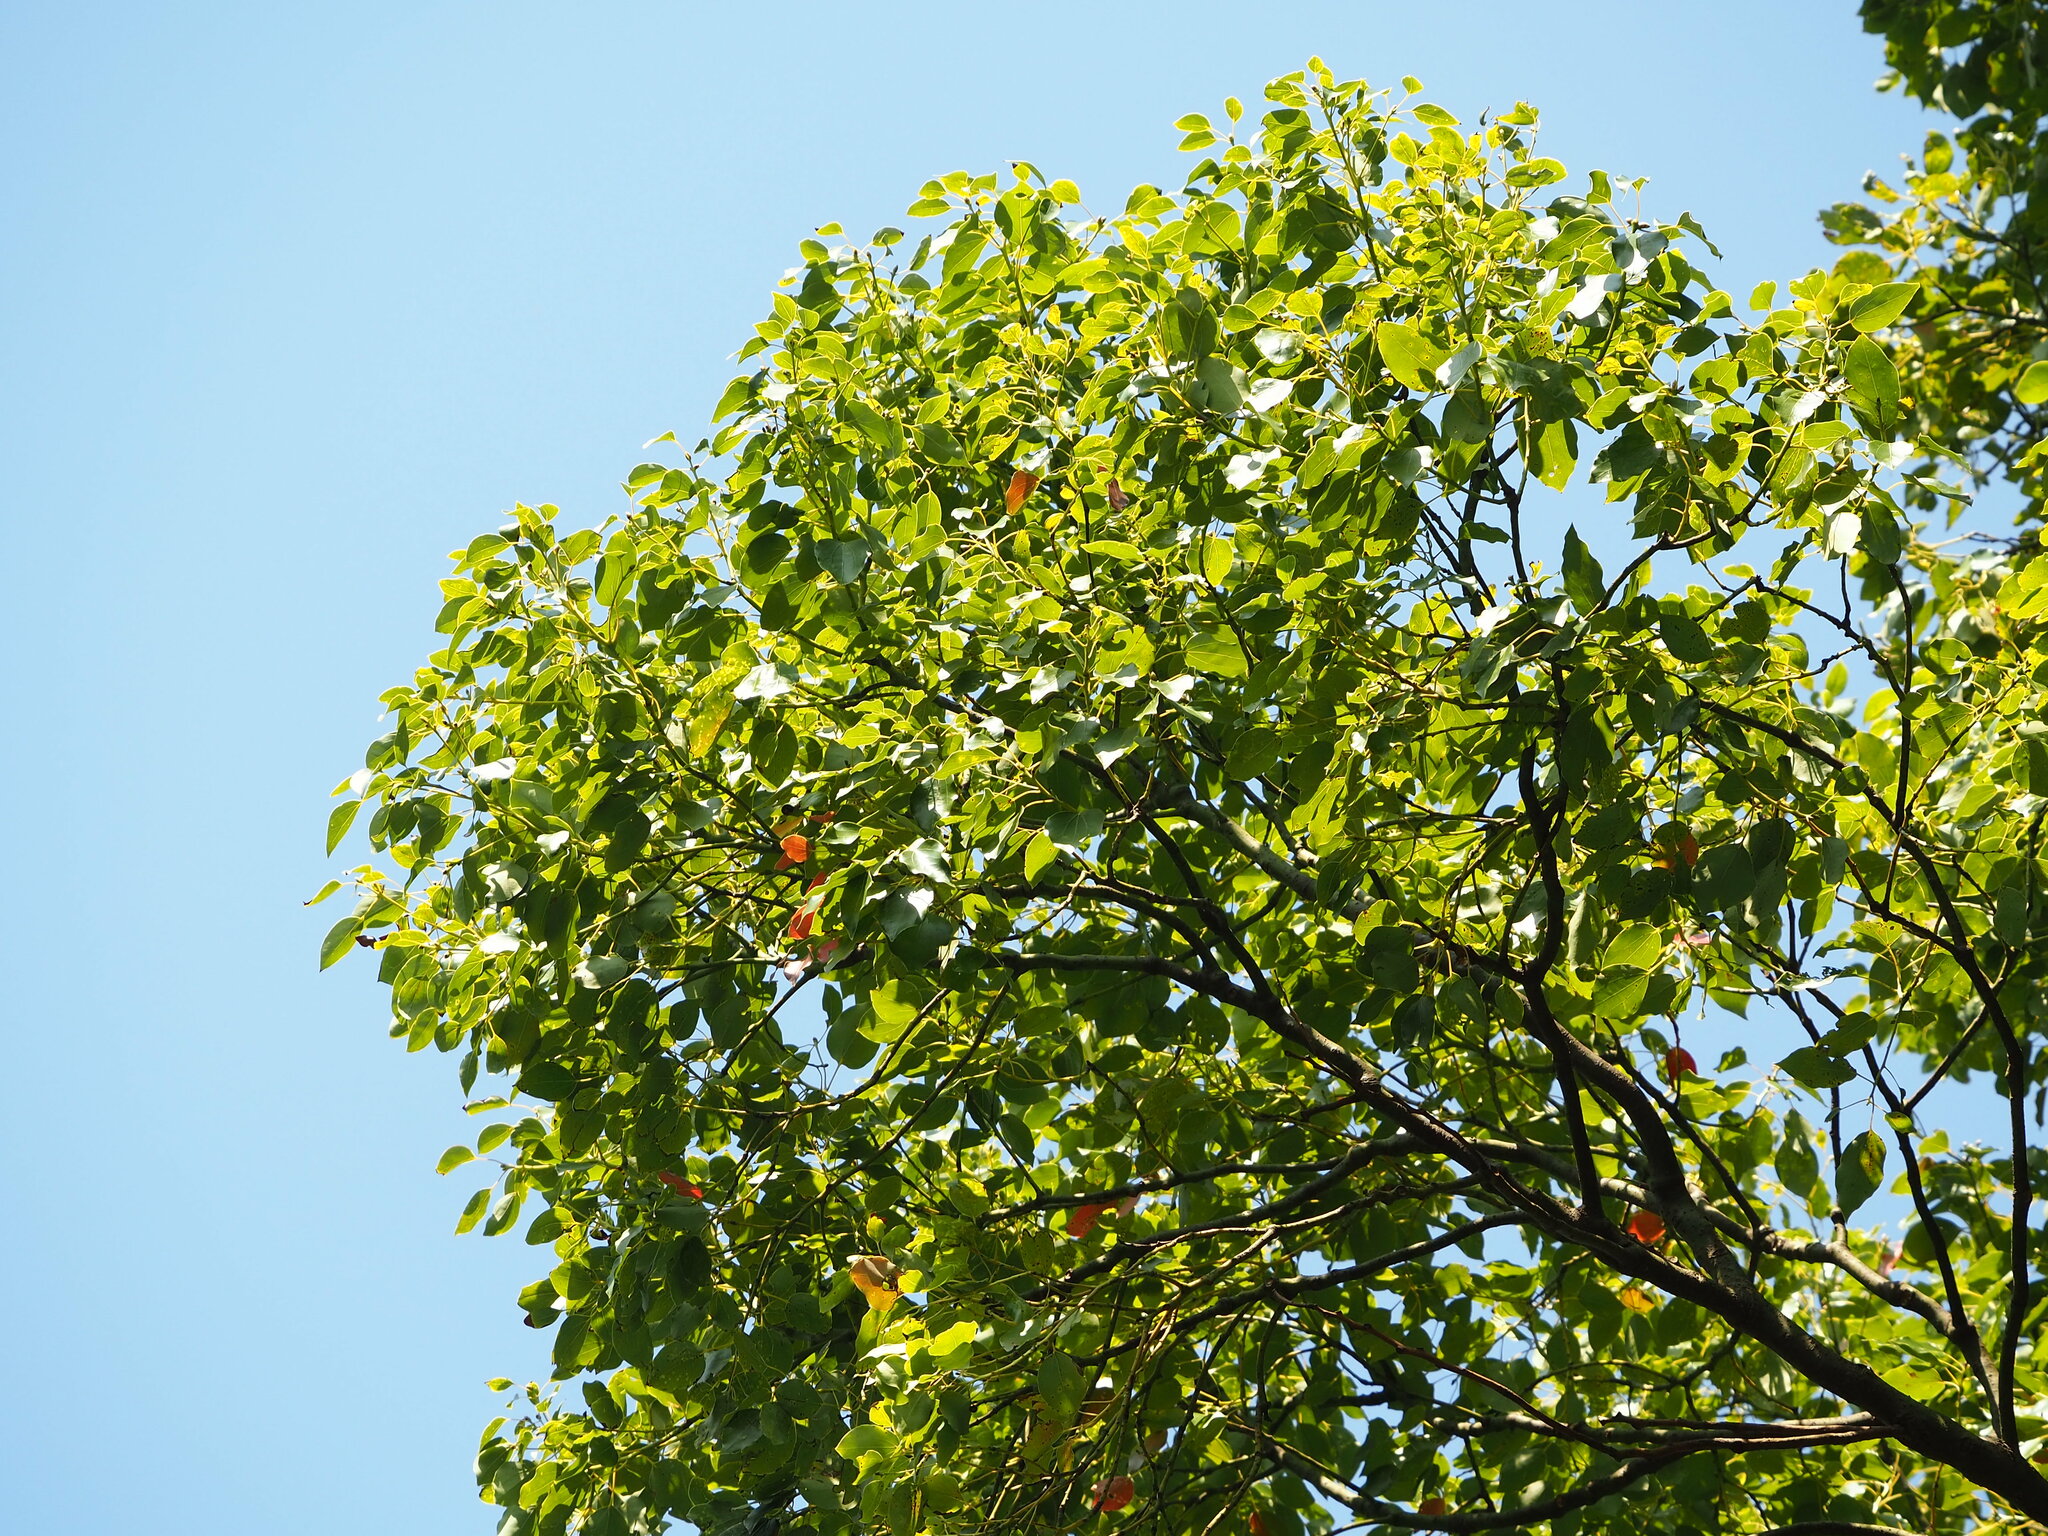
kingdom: Plantae
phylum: Tracheophyta
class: Magnoliopsida
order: Laurales
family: Lauraceae
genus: Cinnamomum
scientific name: Cinnamomum camphora
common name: Camphortree
